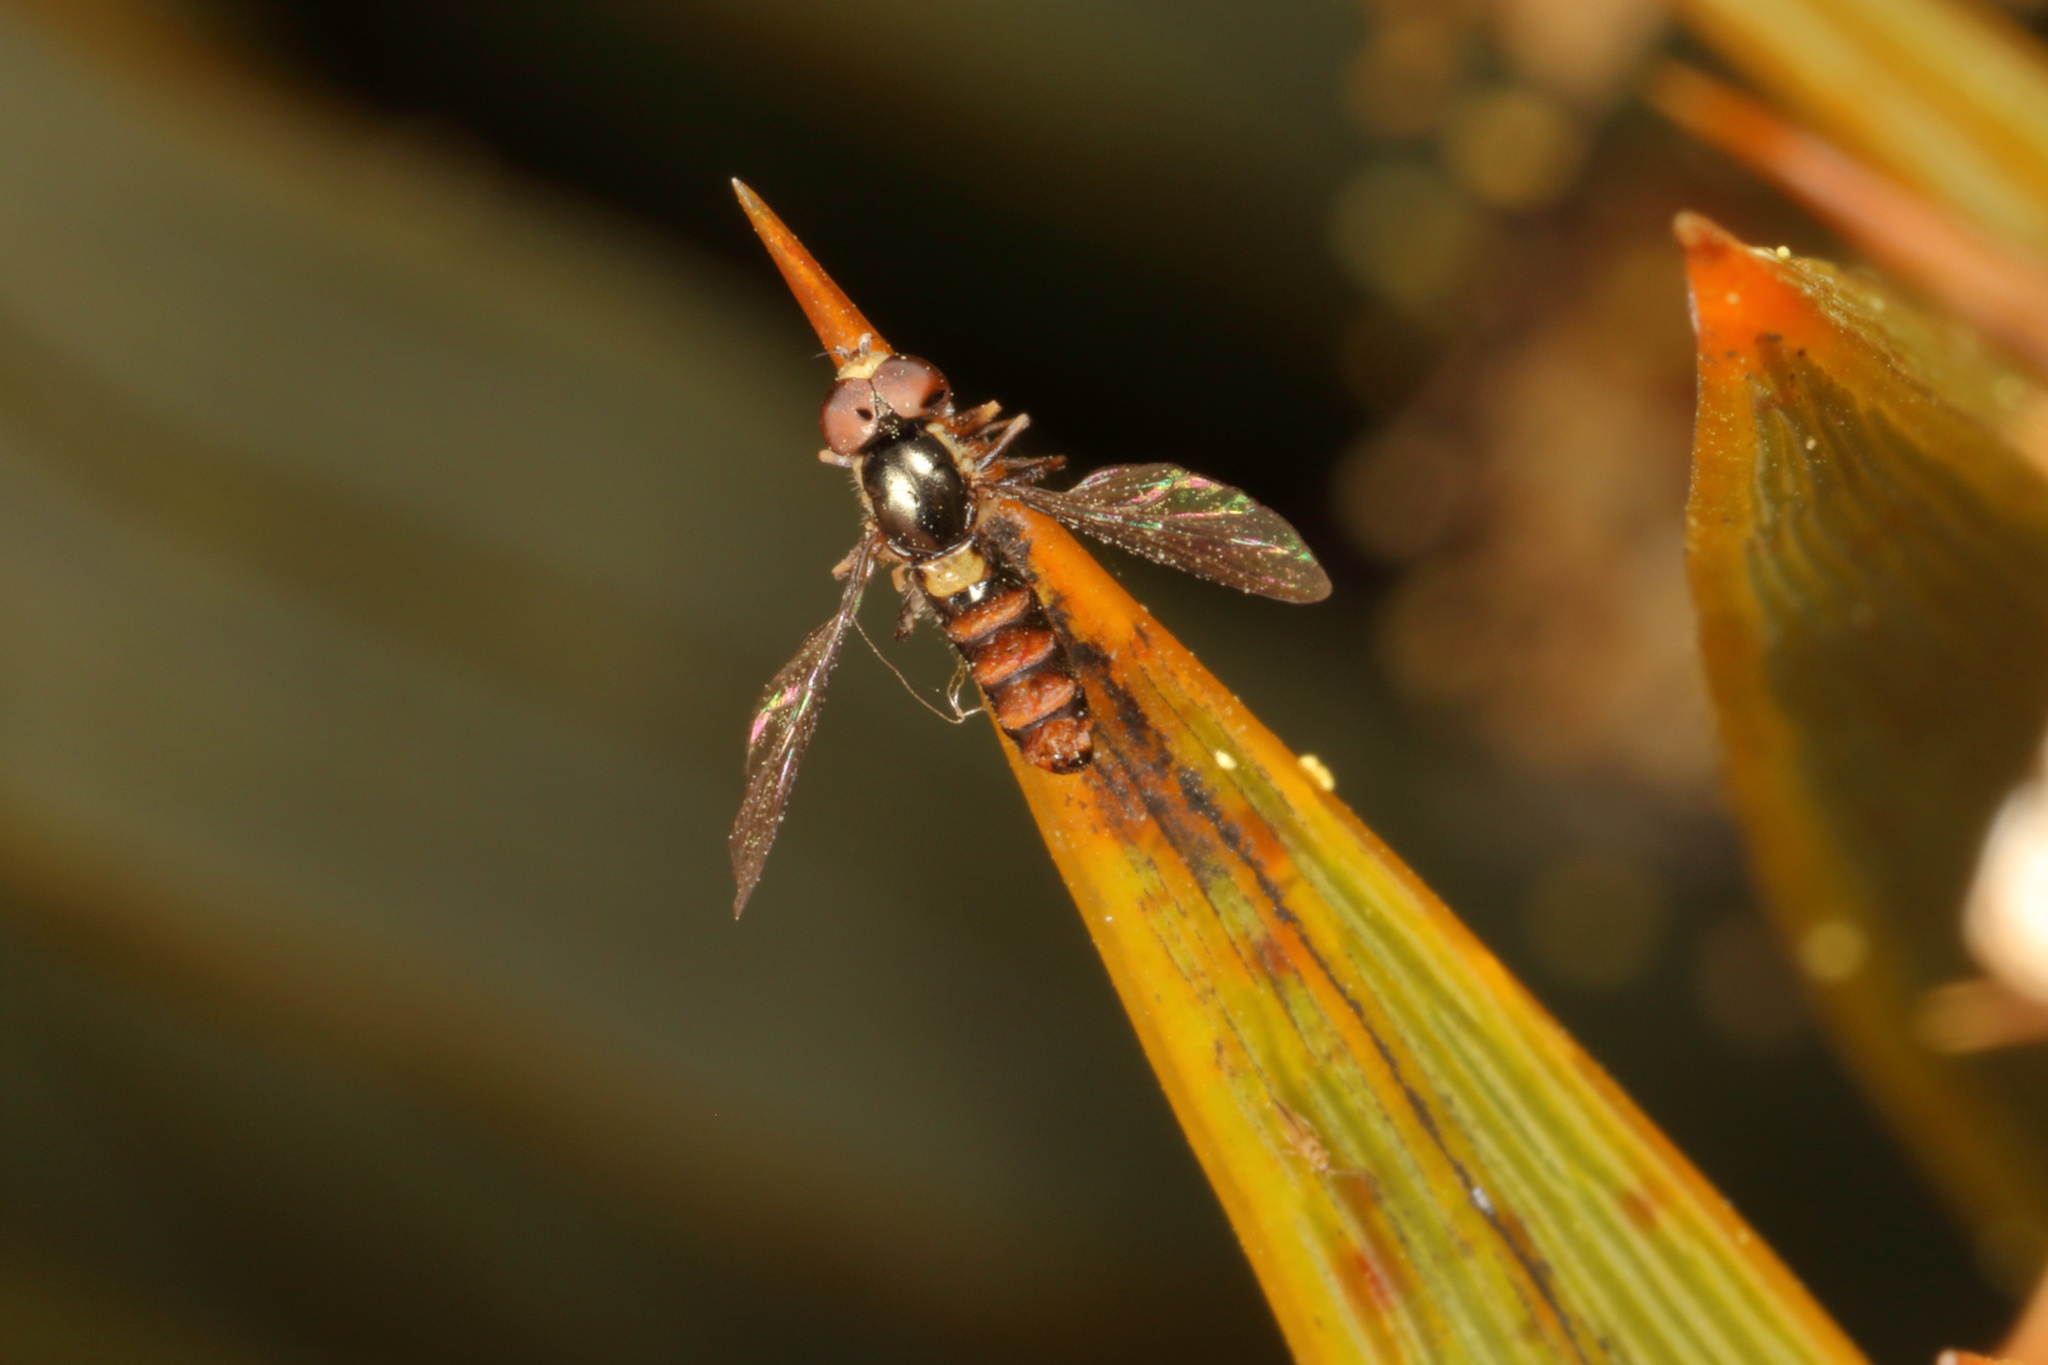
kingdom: Animalia
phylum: Arthropoda
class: Insecta
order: Diptera
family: Syrphidae
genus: Anu
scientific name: Anu una
